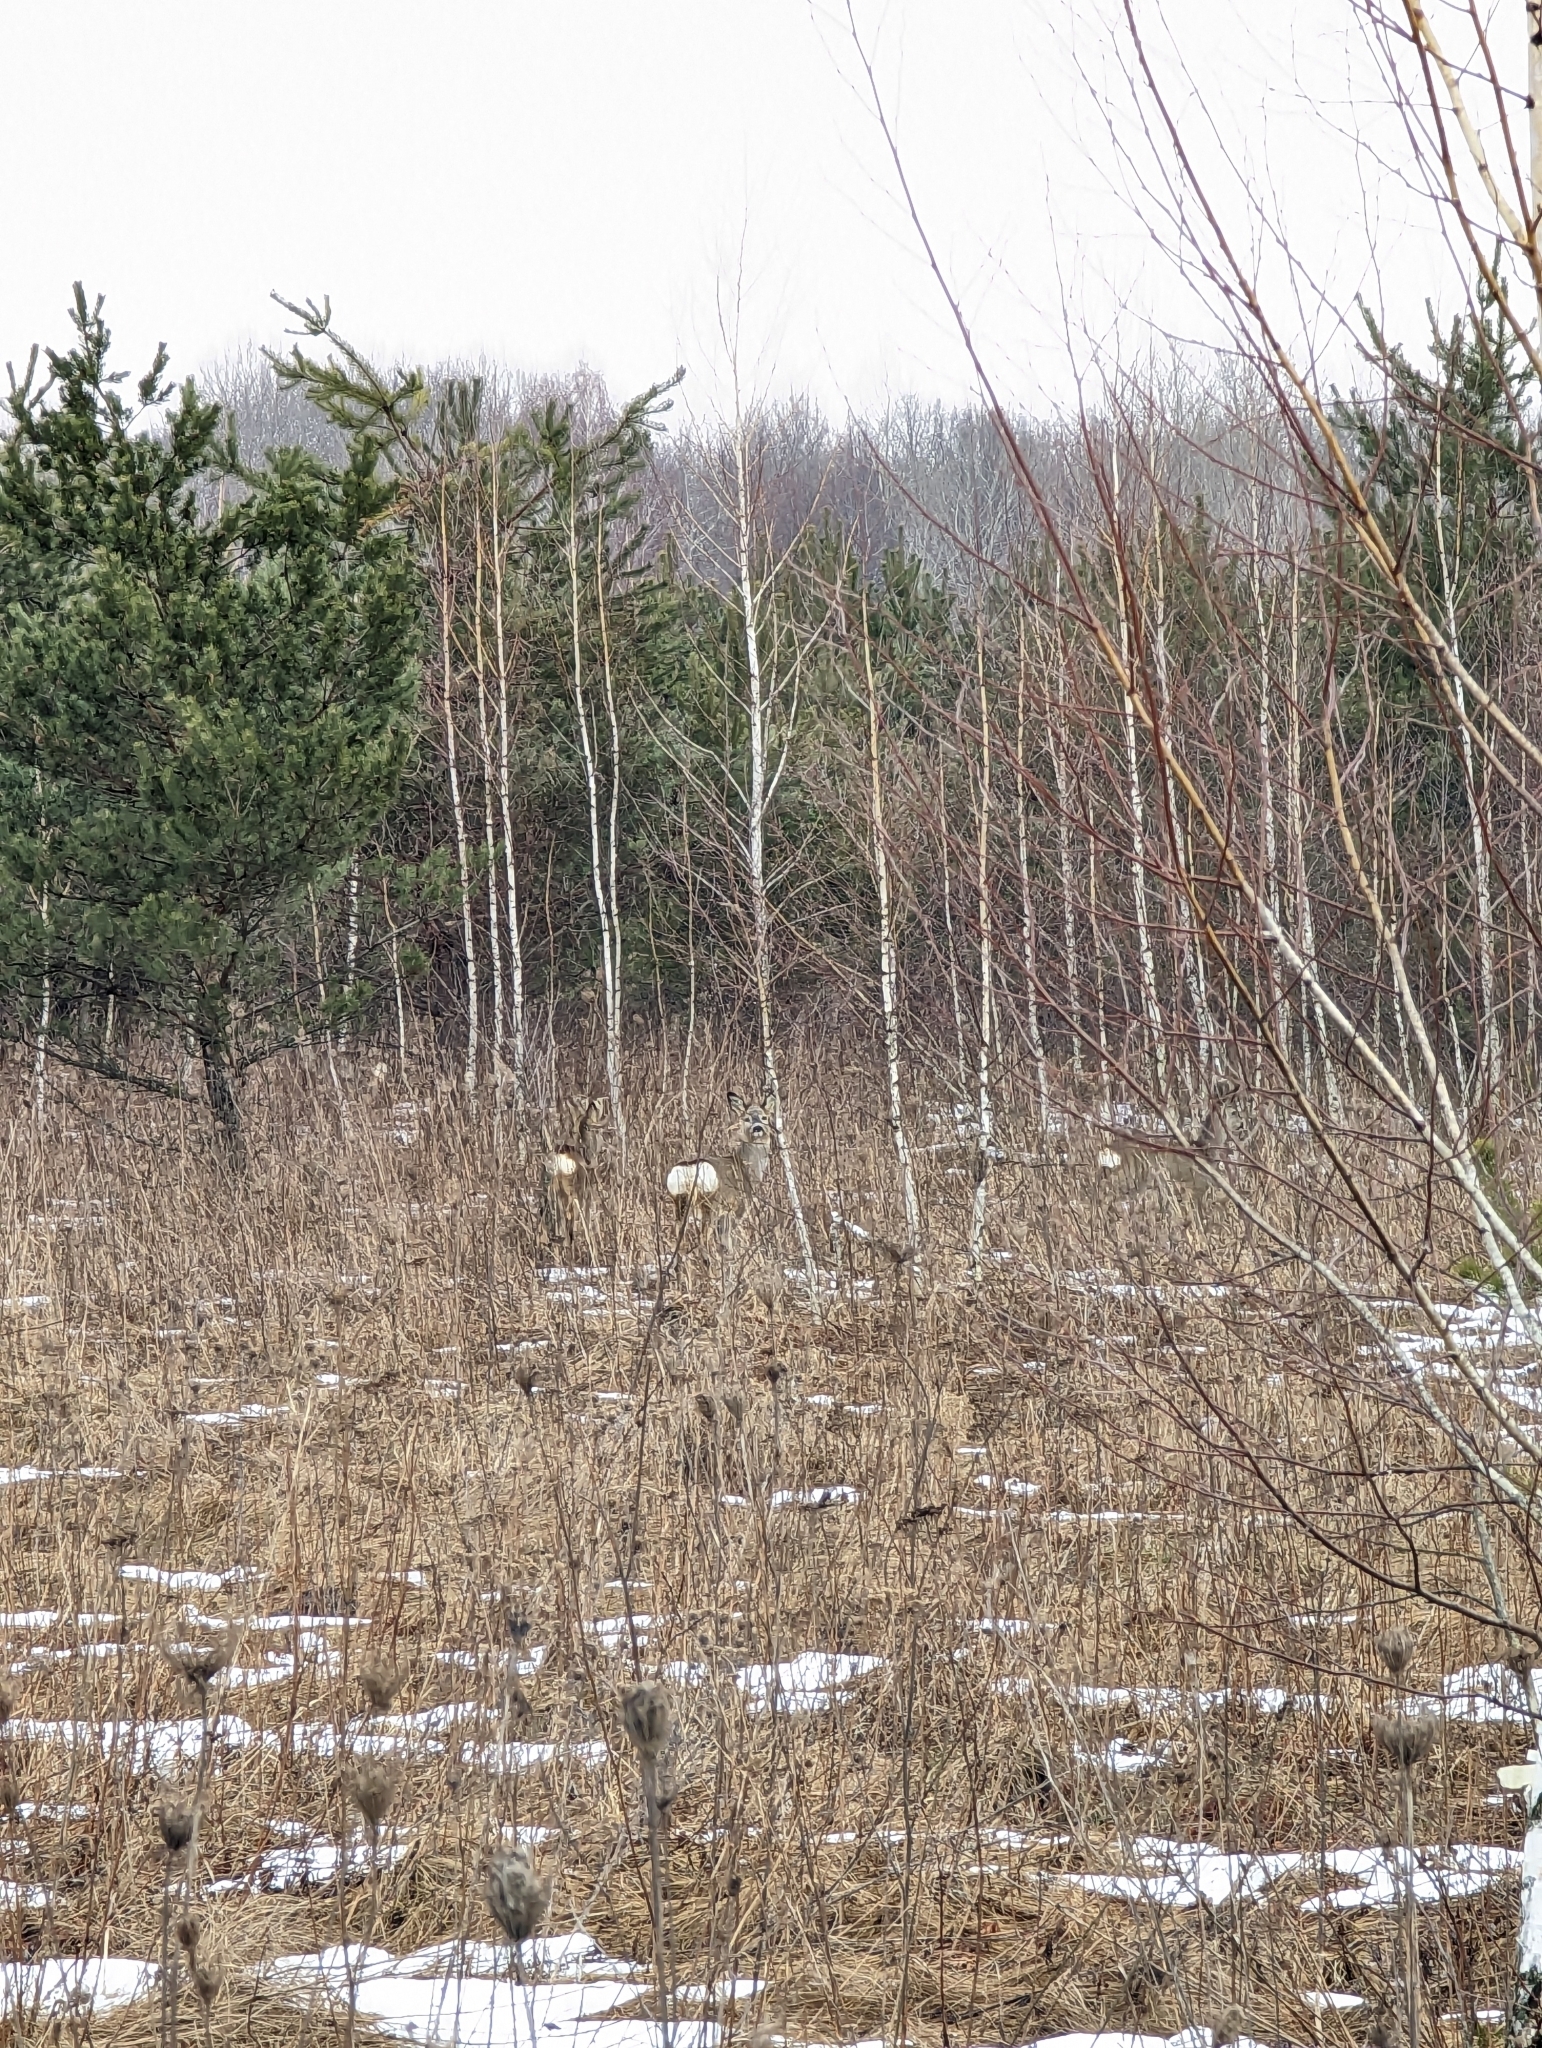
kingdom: Animalia
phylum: Chordata
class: Mammalia
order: Artiodactyla
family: Cervidae
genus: Capreolus
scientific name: Capreolus capreolus
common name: Western roe deer
